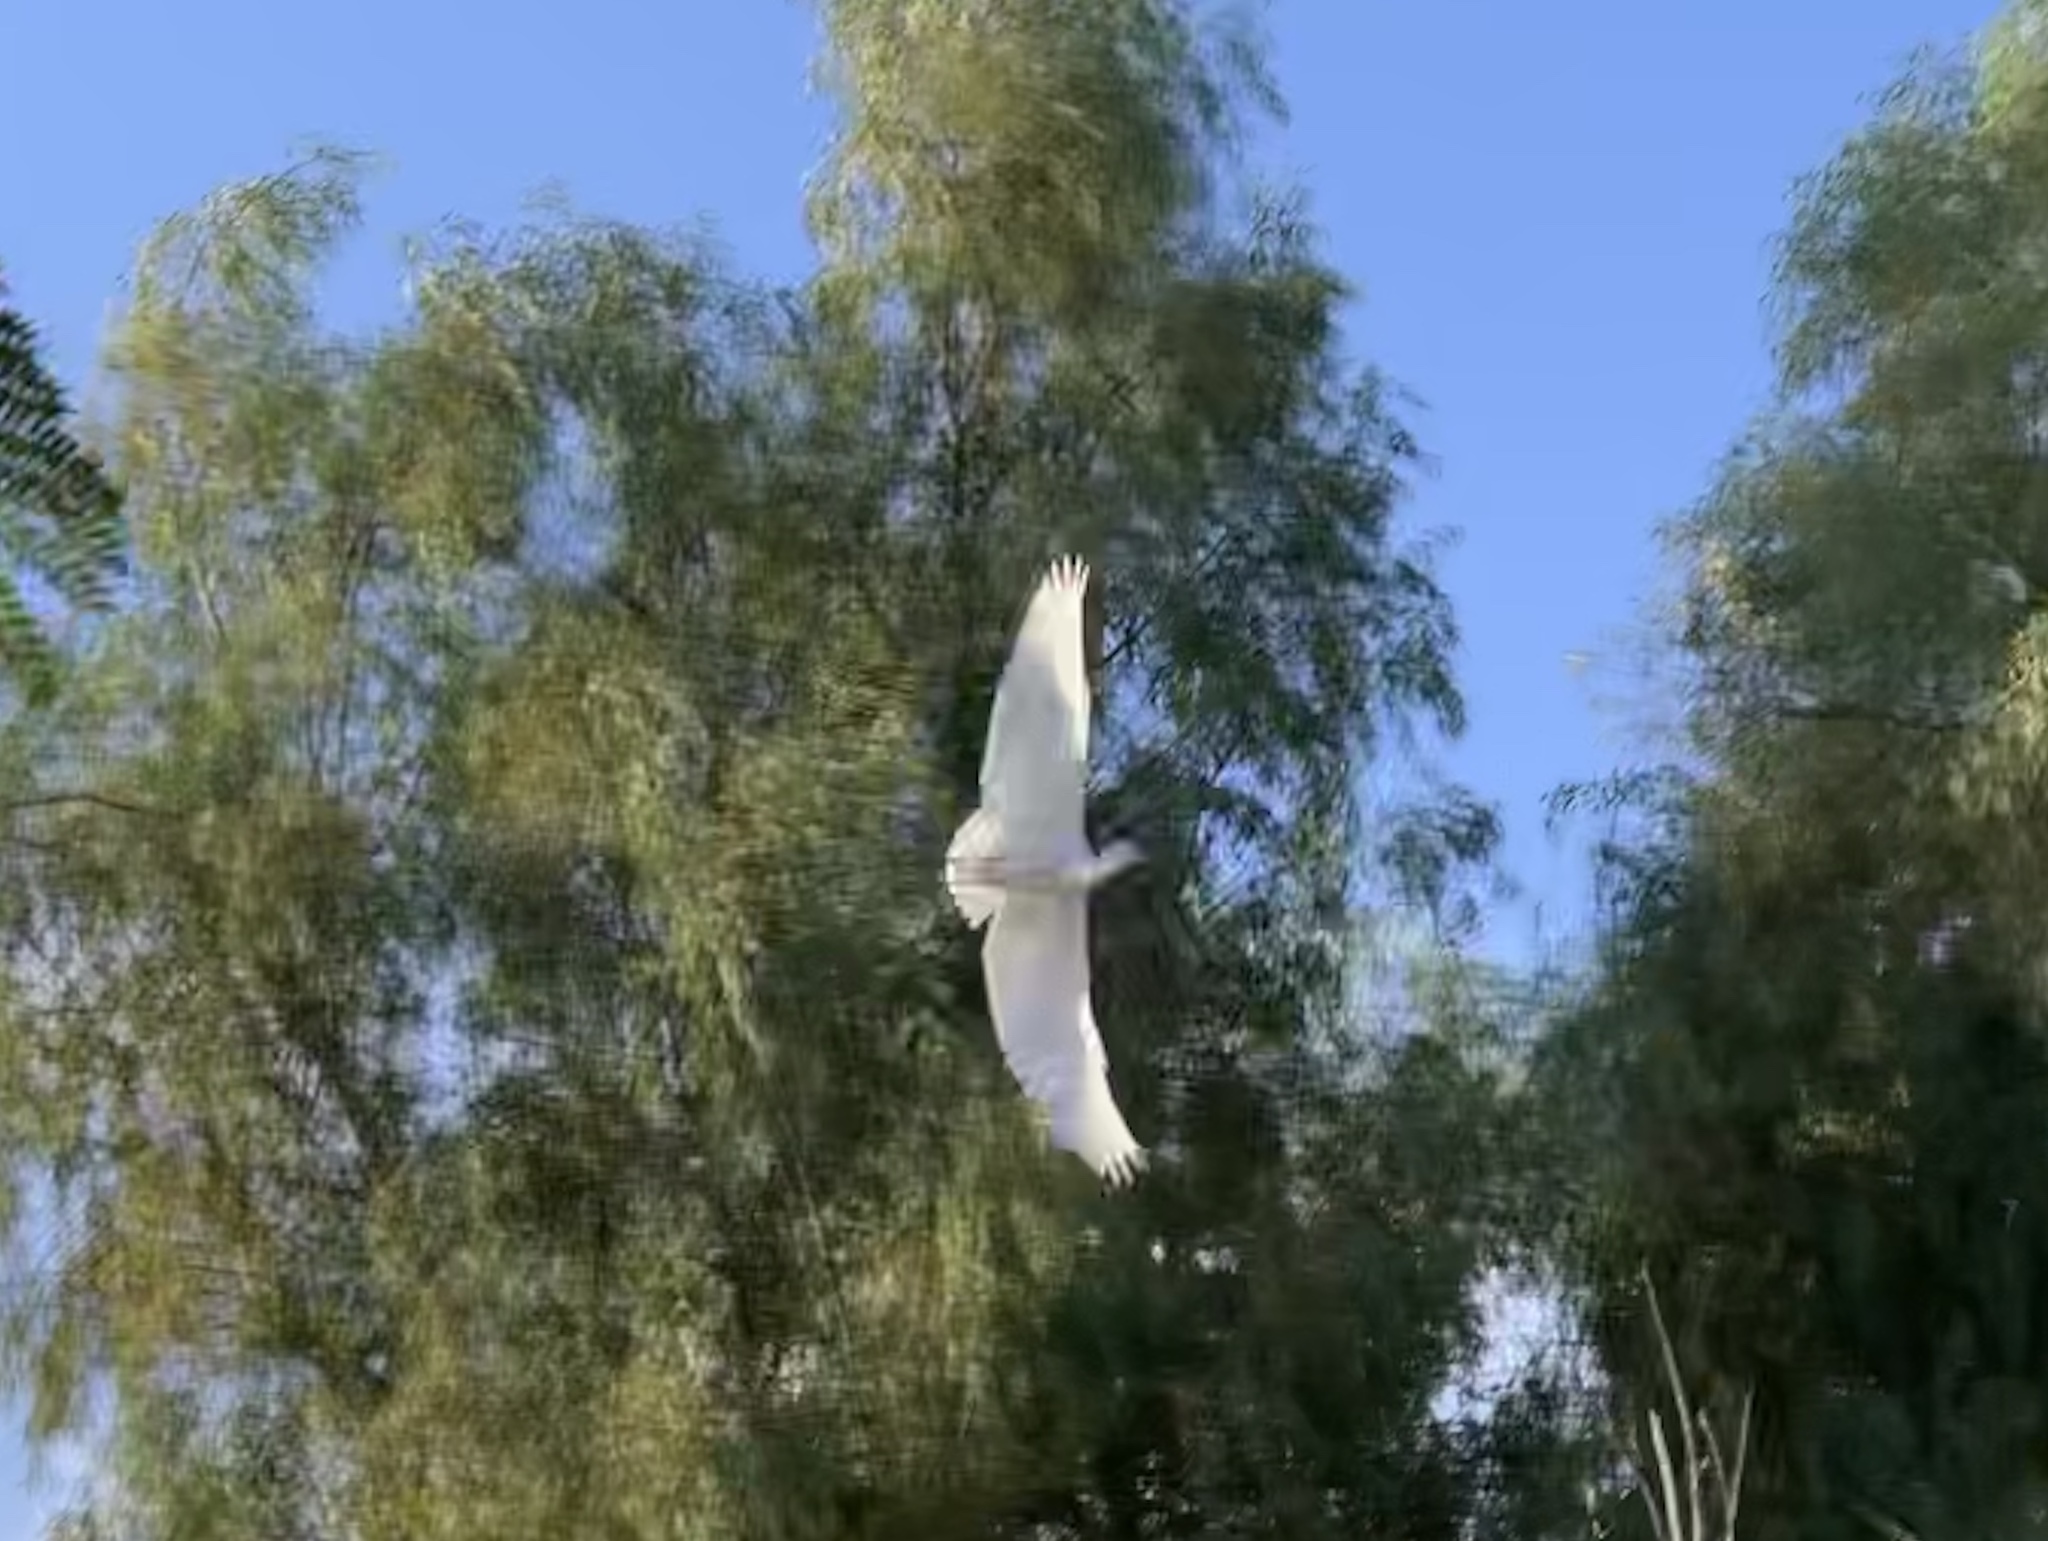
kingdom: Animalia
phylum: Chordata
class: Aves
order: Pelecaniformes
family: Ardeidae
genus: Egretta
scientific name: Egretta garzetta
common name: Little egret
